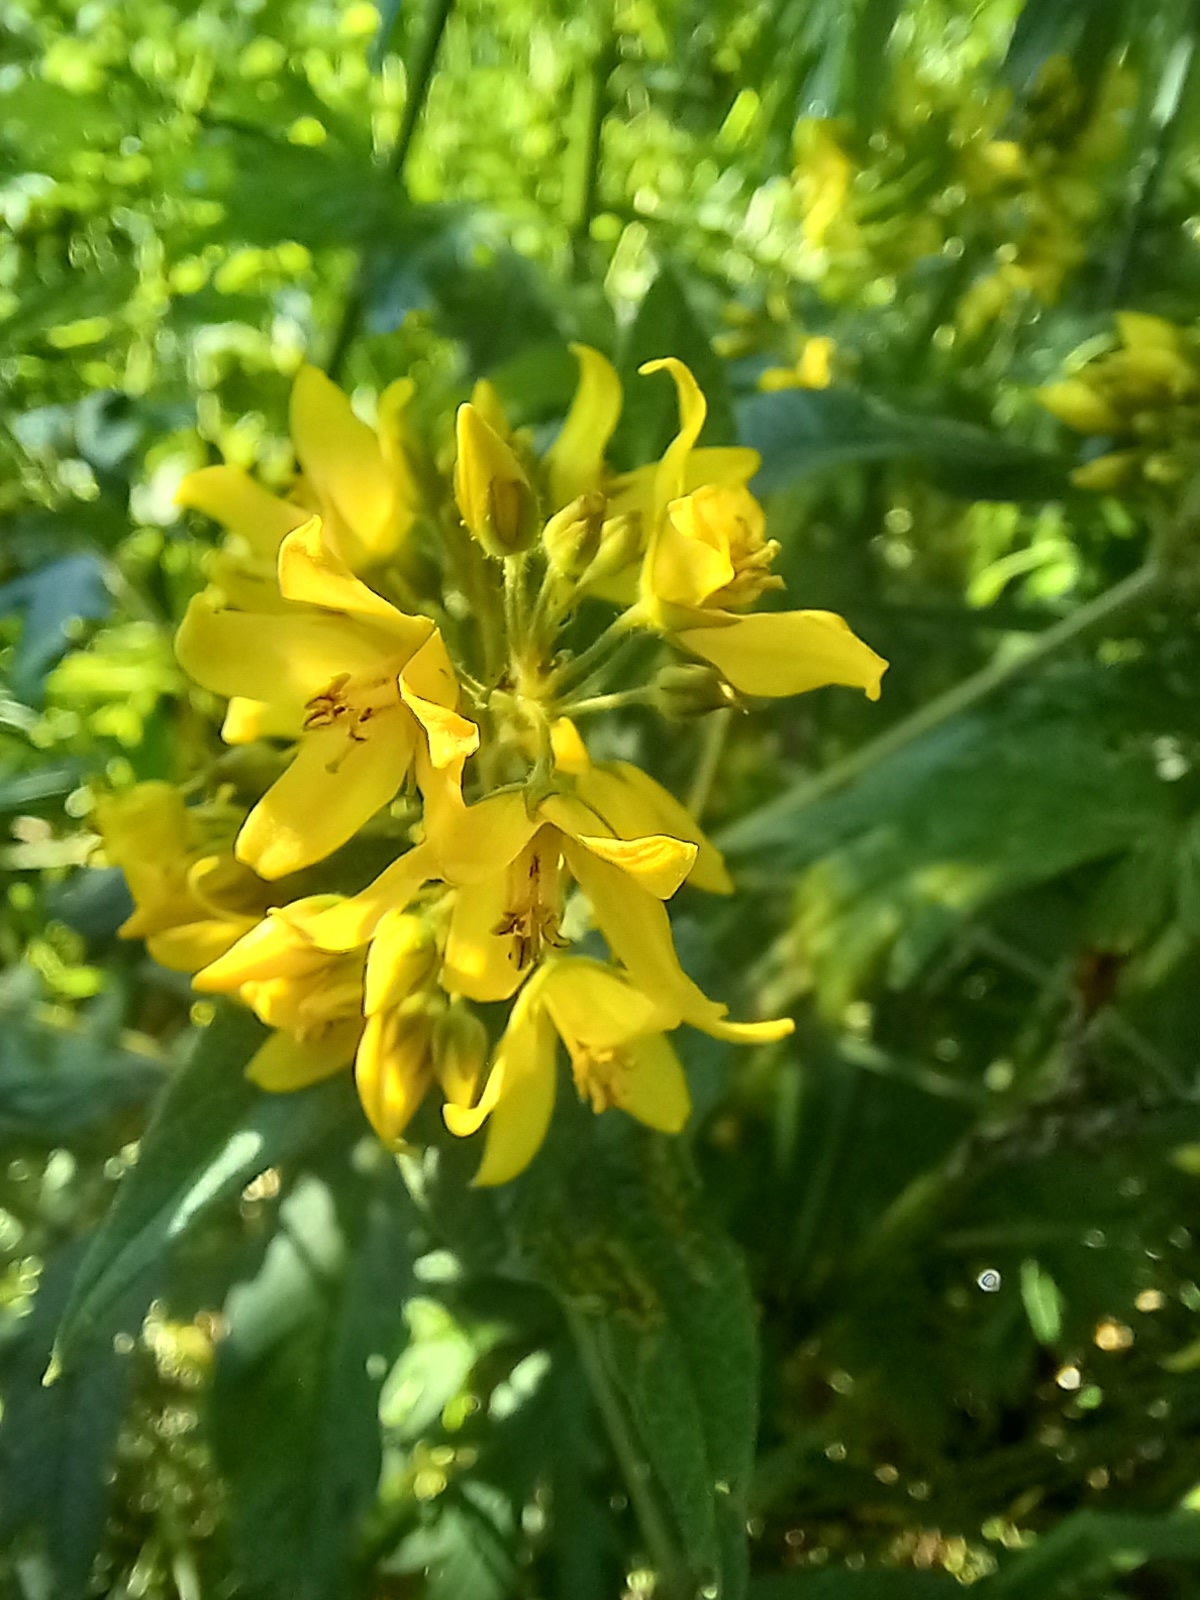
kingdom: Plantae
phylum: Tracheophyta
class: Magnoliopsida
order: Ericales
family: Primulaceae
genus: Lysimachia
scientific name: Lysimachia vulgaris
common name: Yellow loosestrife
